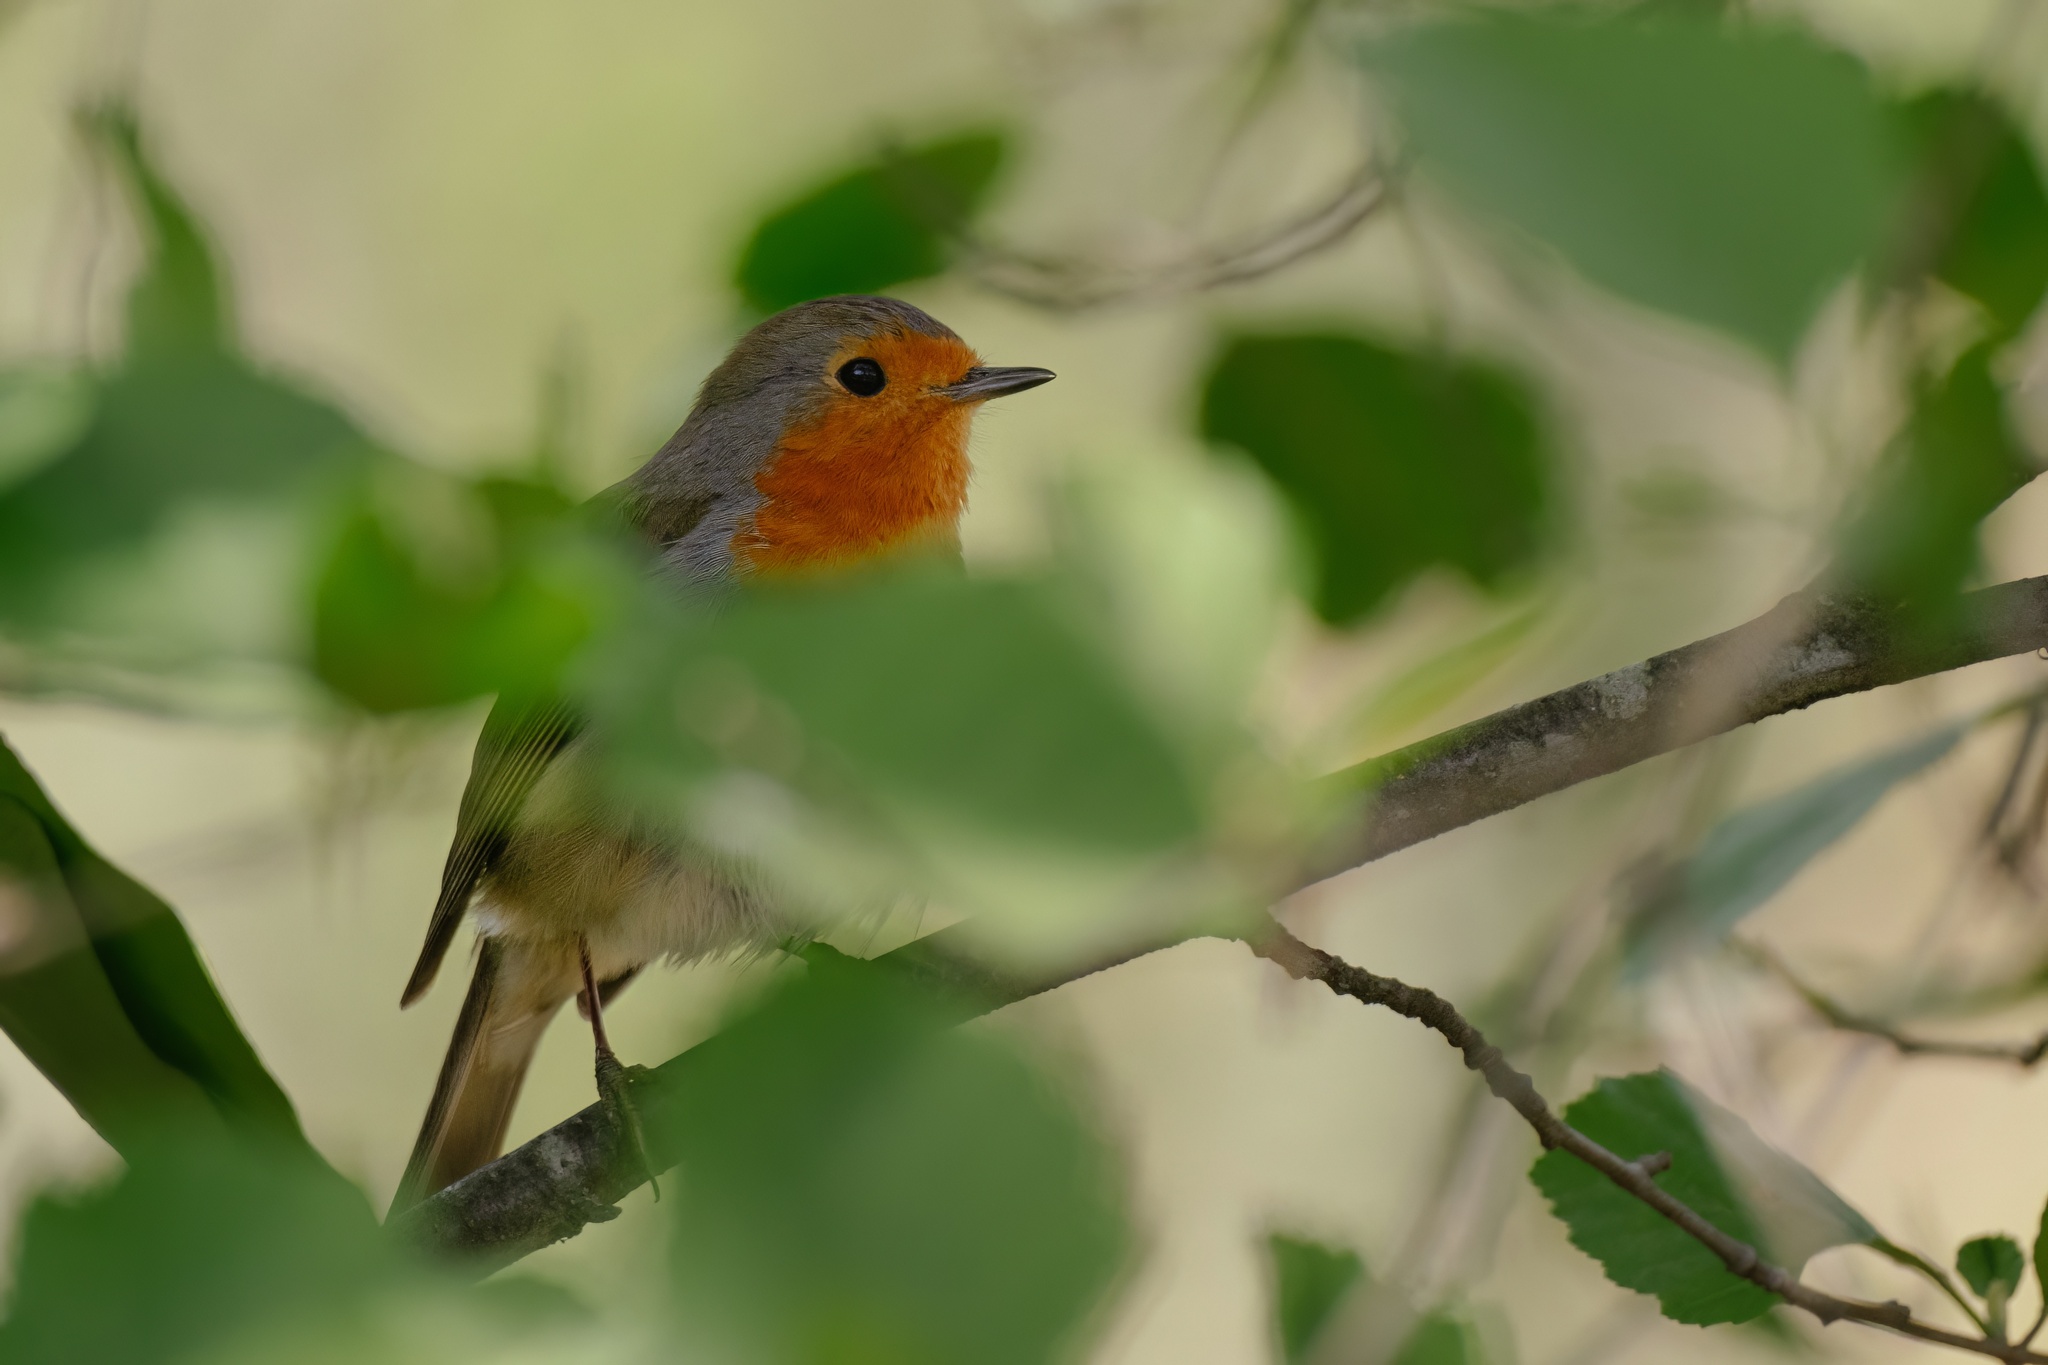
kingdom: Animalia
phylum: Chordata
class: Aves
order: Passeriformes
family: Muscicapidae
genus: Erithacus
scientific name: Erithacus rubecula
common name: European robin
